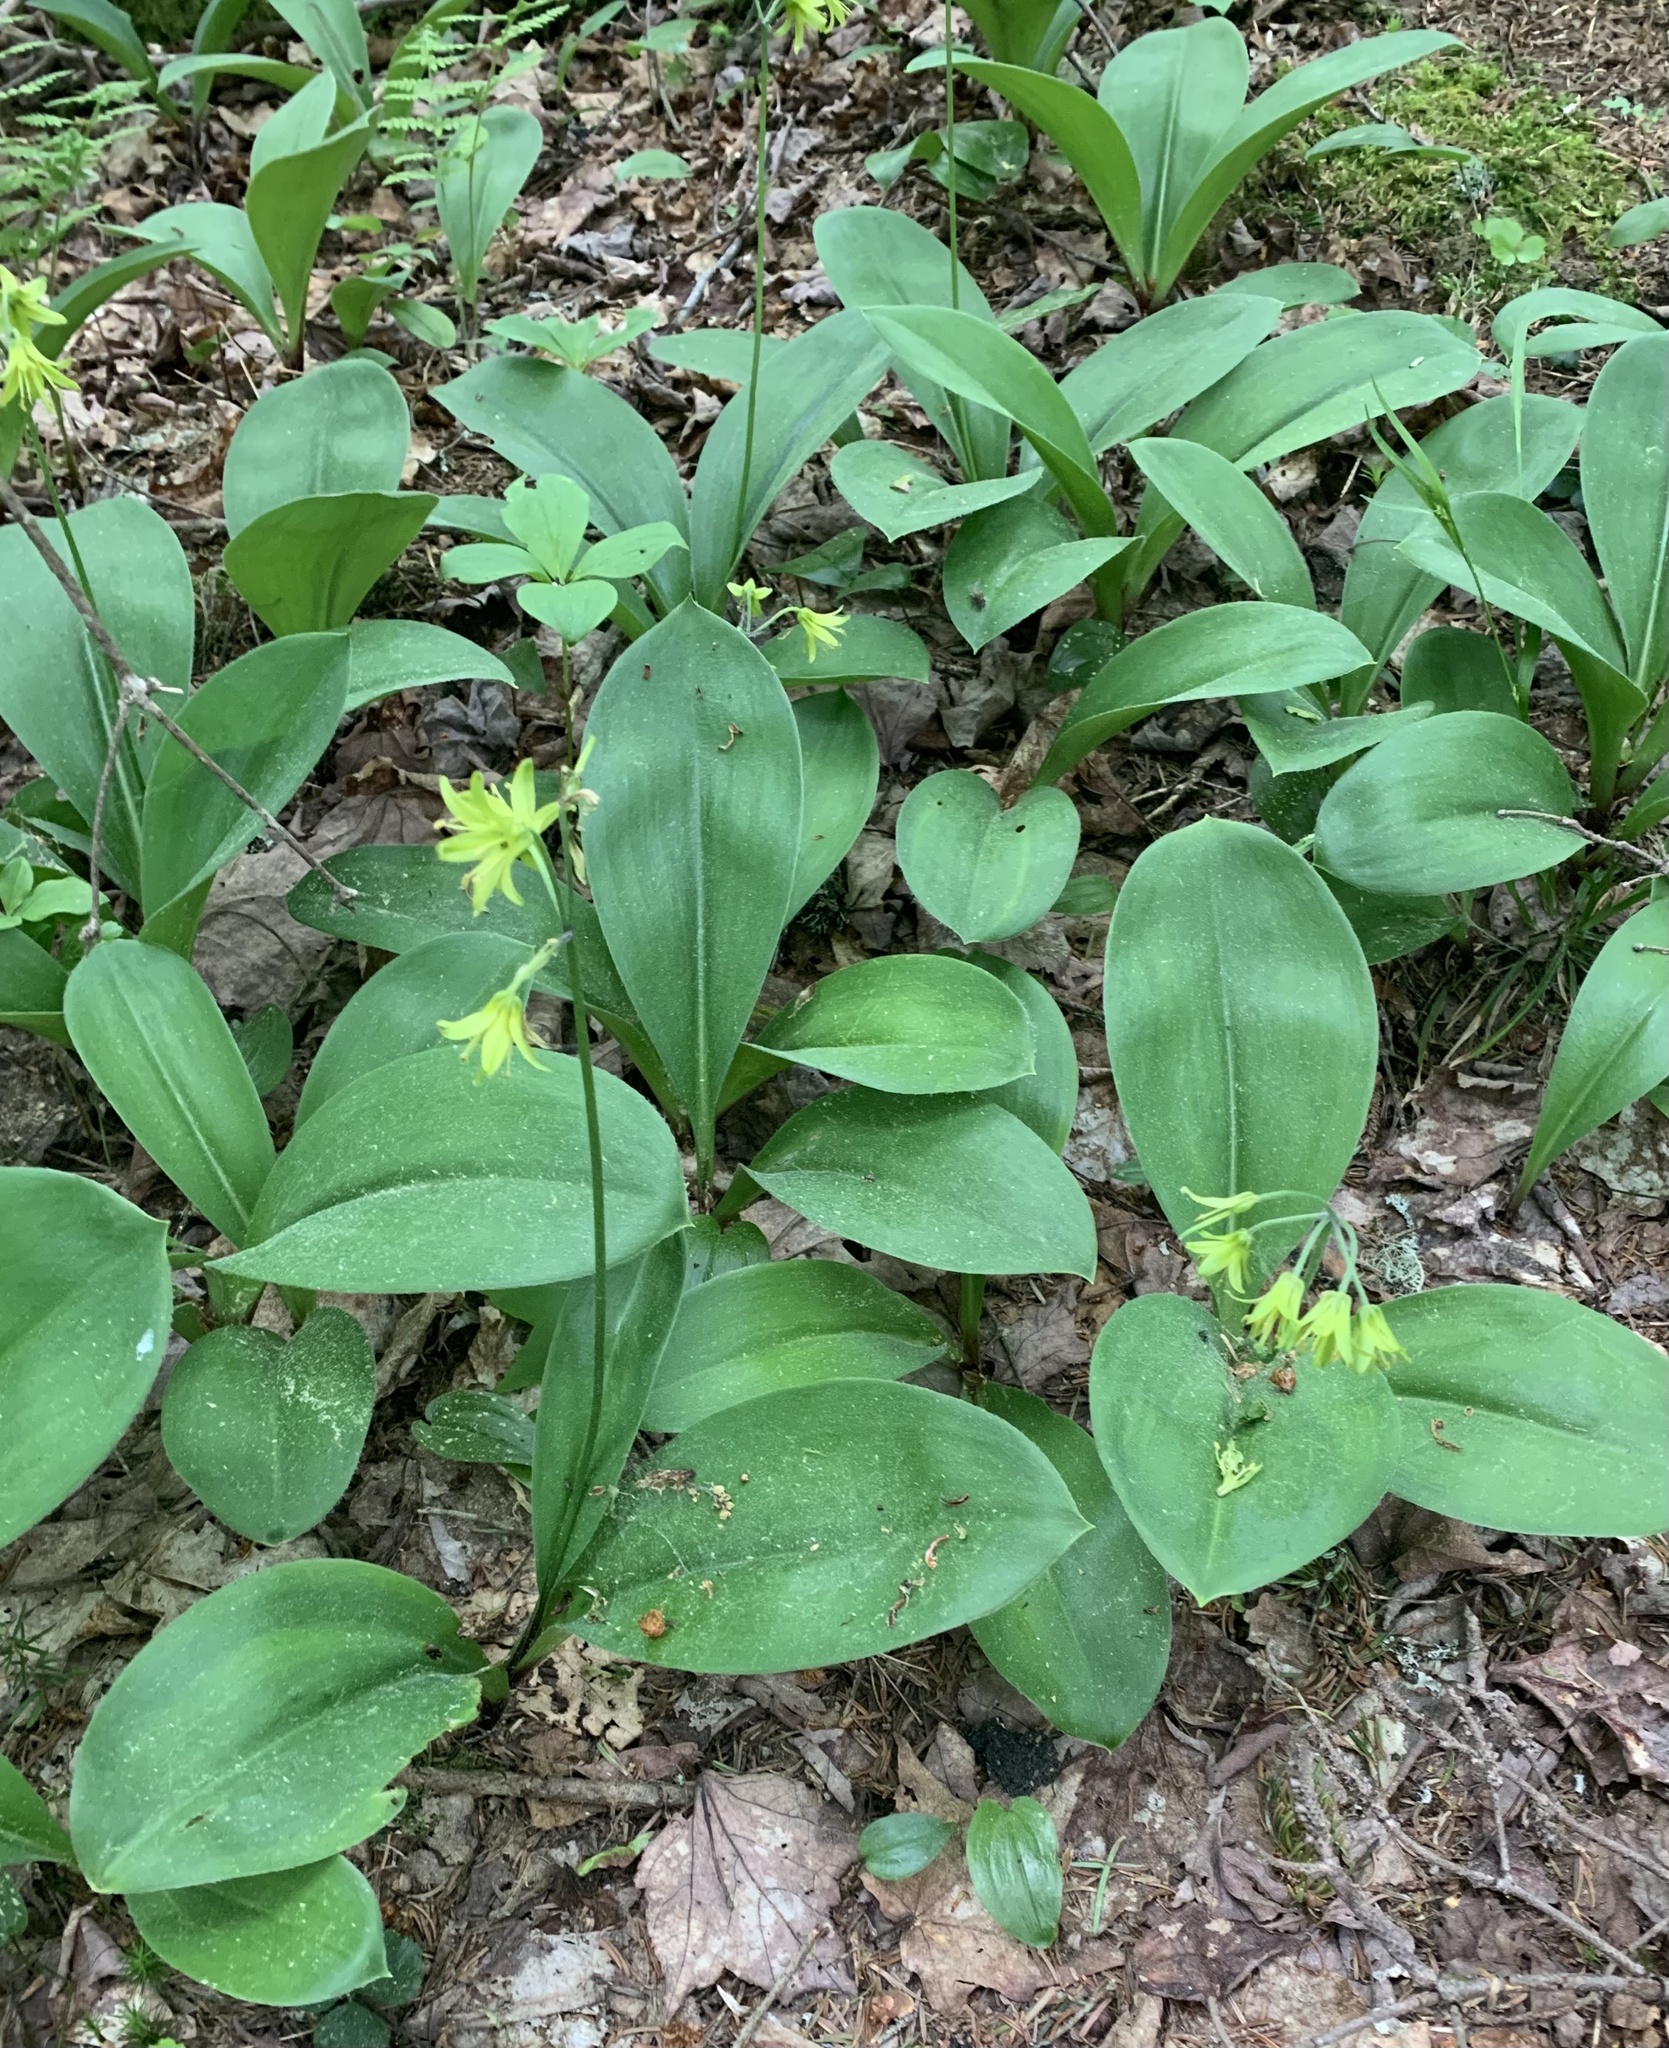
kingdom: Plantae
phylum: Tracheophyta
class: Liliopsida
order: Liliales
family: Liliaceae
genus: Clintonia
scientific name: Clintonia borealis
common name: Yellow clintonia
